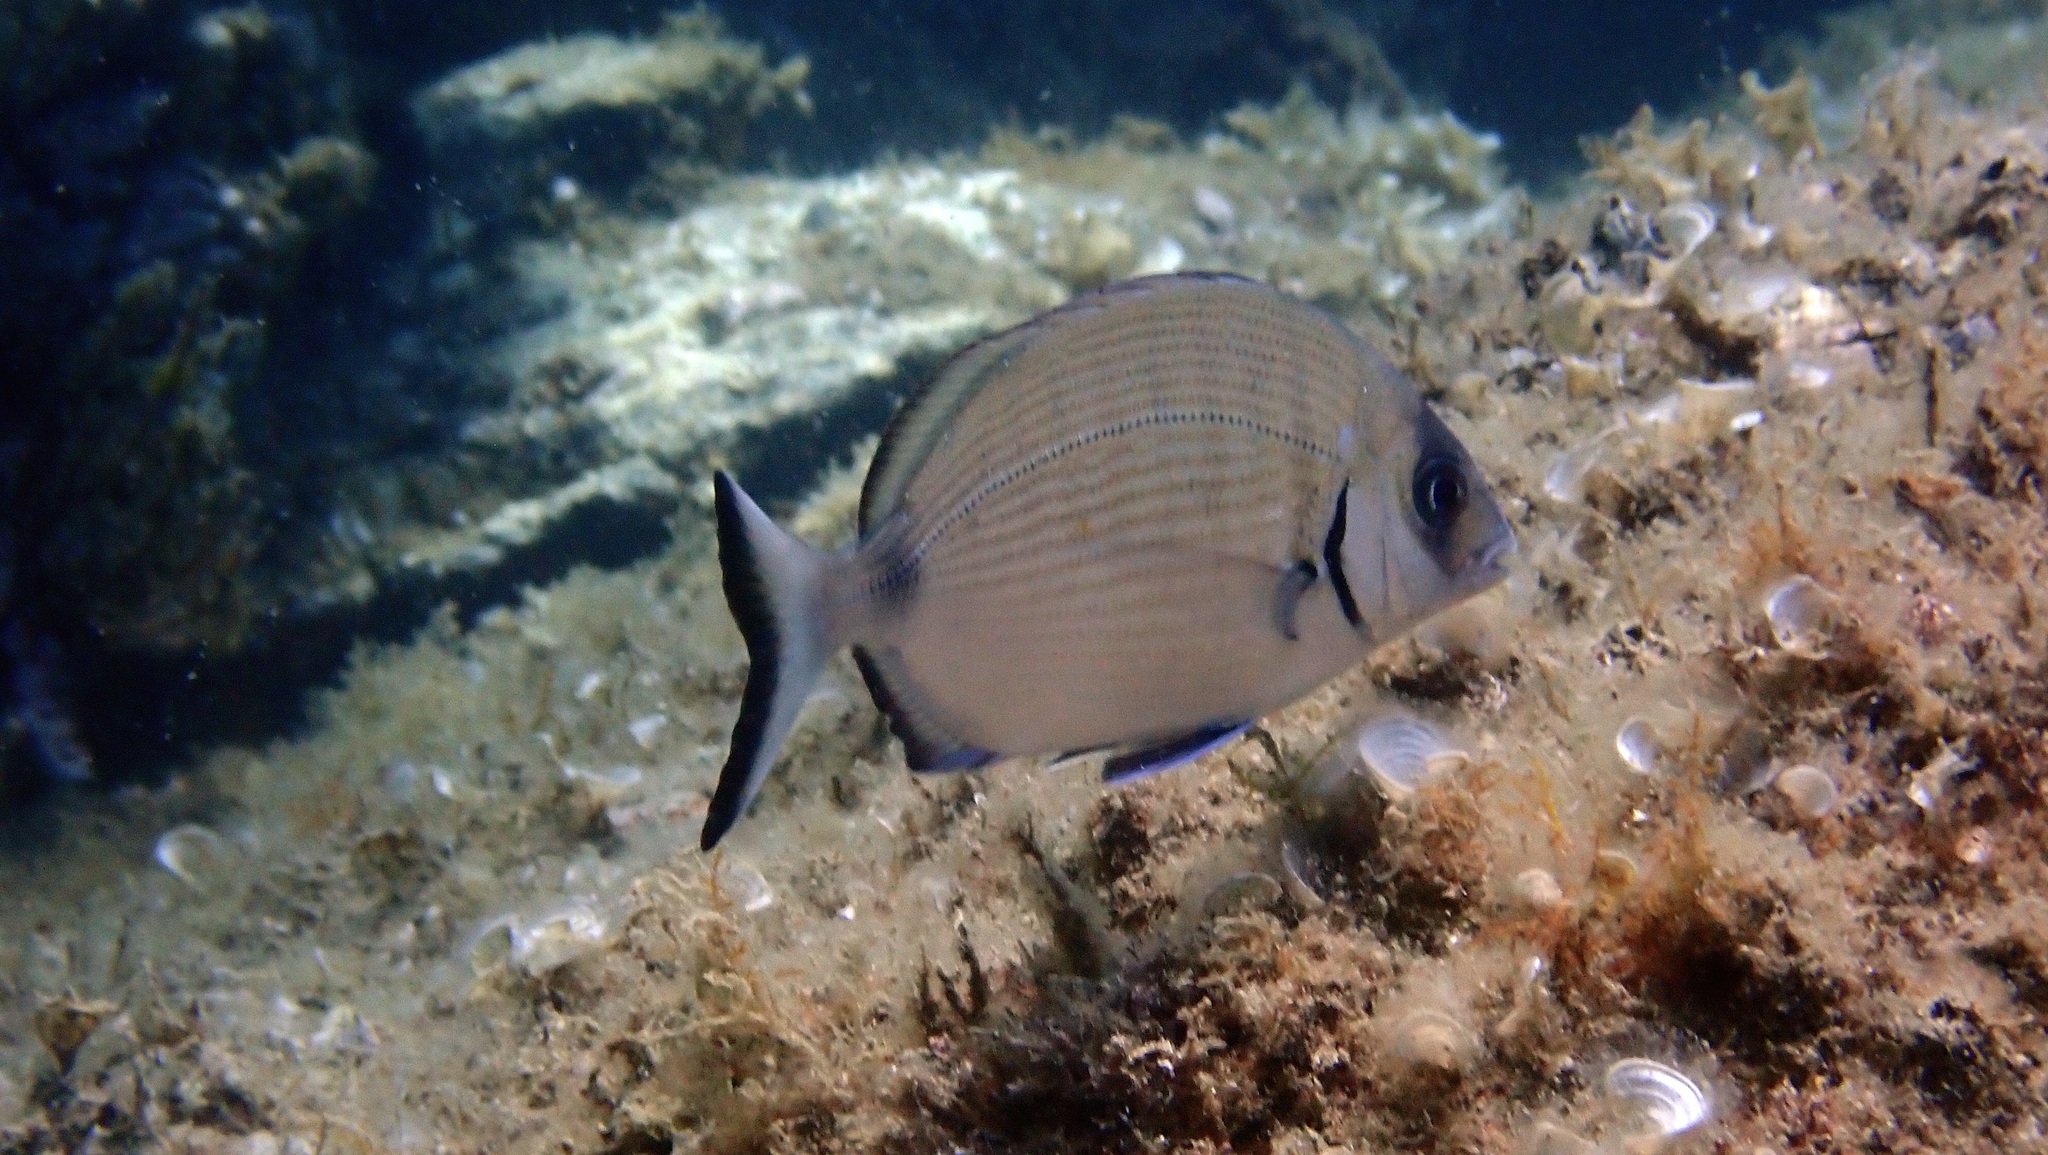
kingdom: Animalia
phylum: Chordata
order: Perciformes
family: Sparidae
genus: Diplodus
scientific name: Diplodus sargus
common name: White seabream
